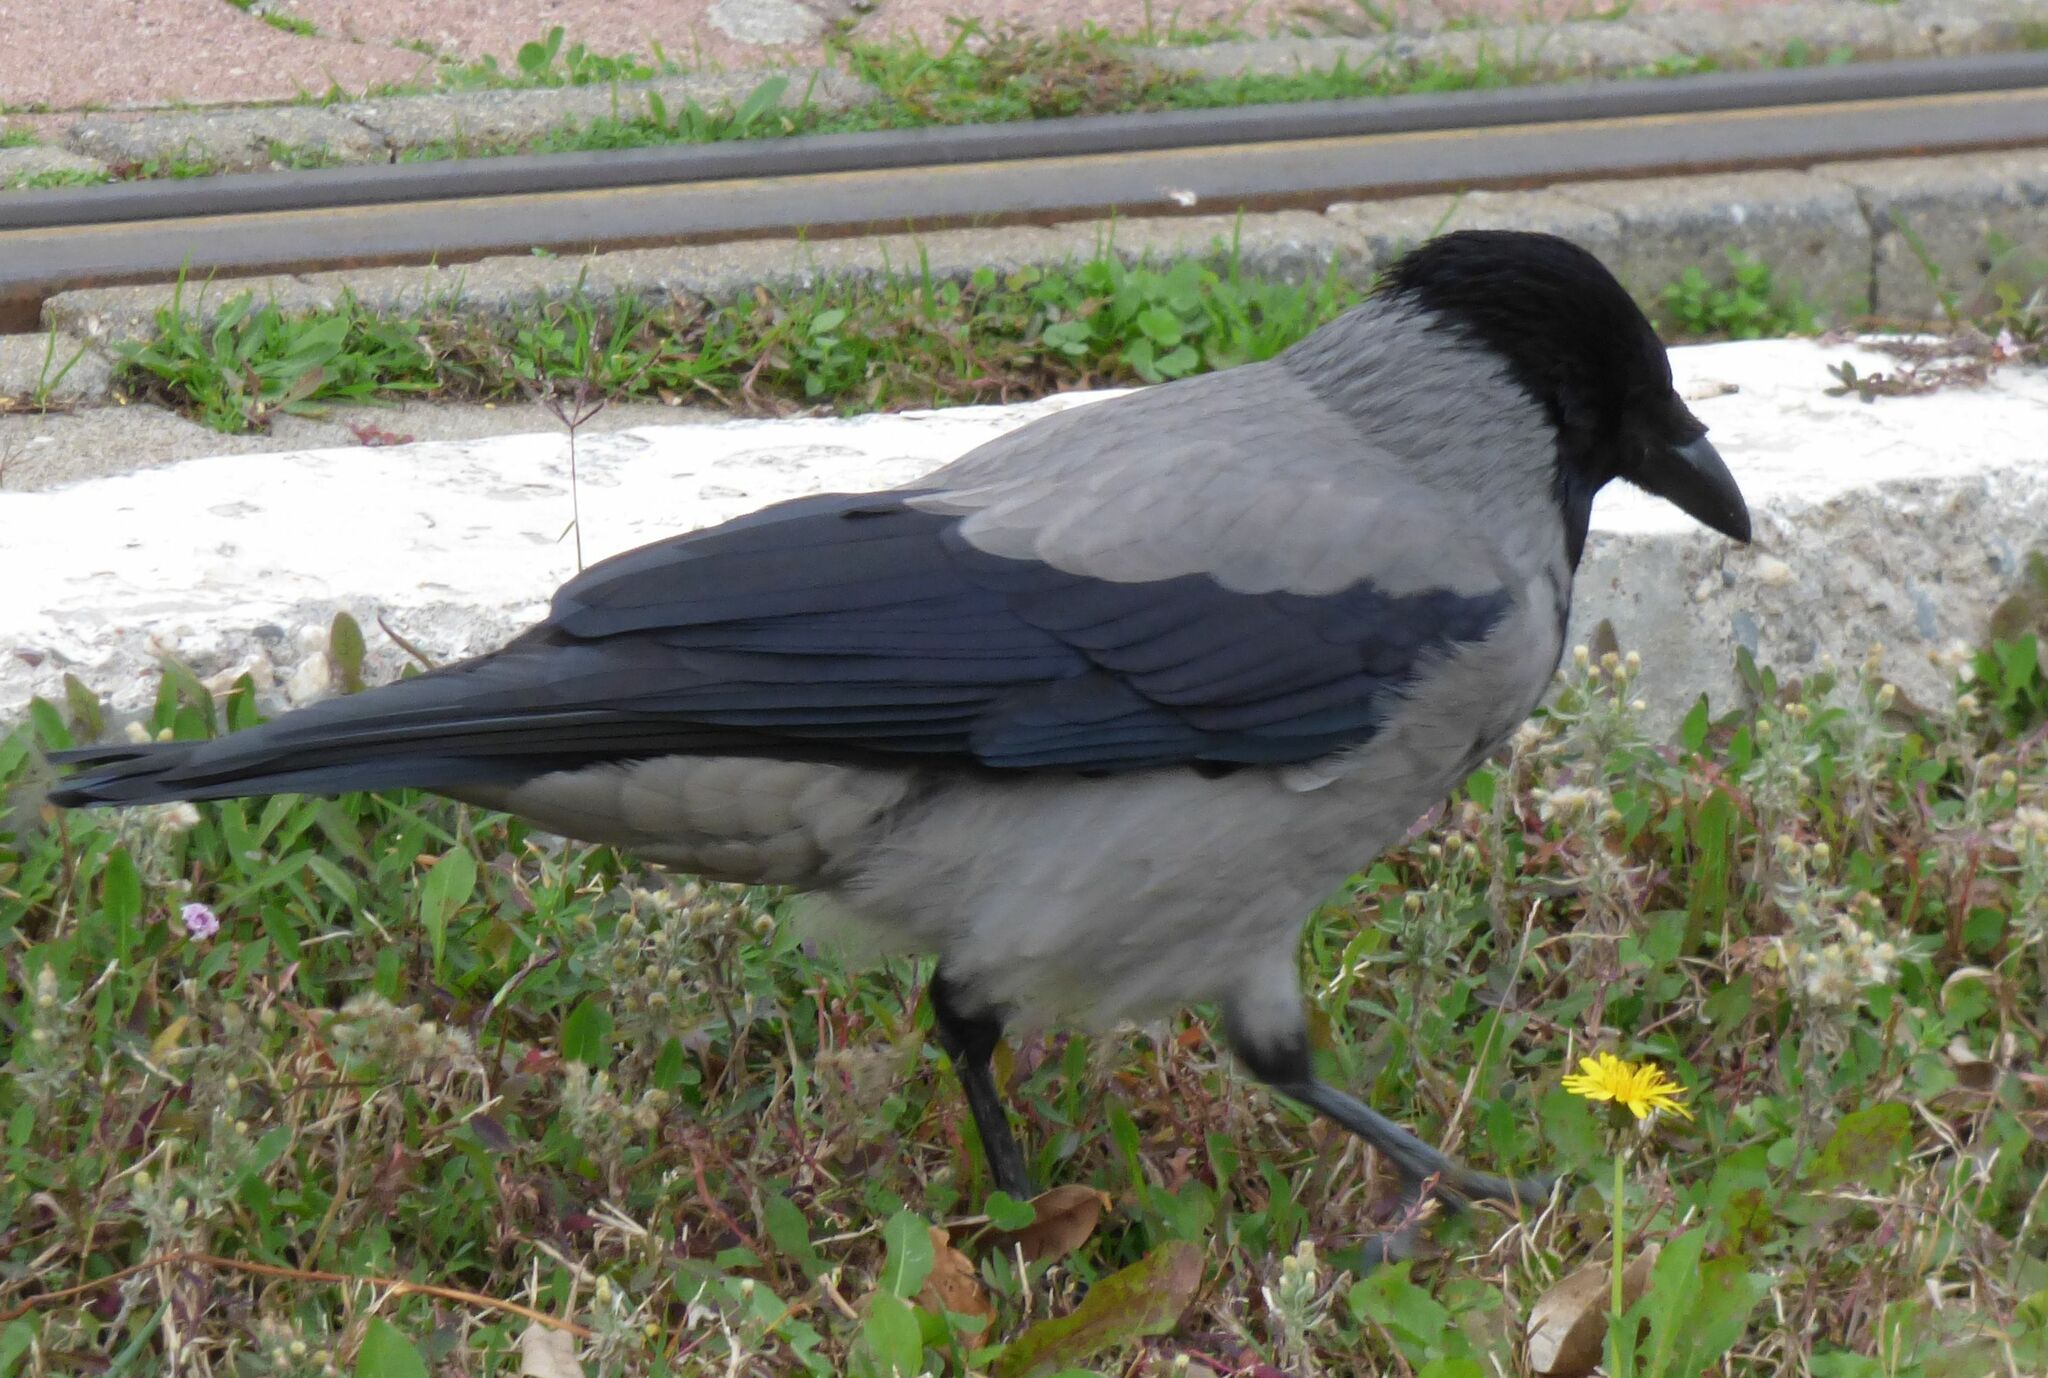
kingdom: Animalia
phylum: Chordata
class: Aves
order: Passeriformes
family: Corvidae
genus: Corvus
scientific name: Corvus cornix
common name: Hooded crow
